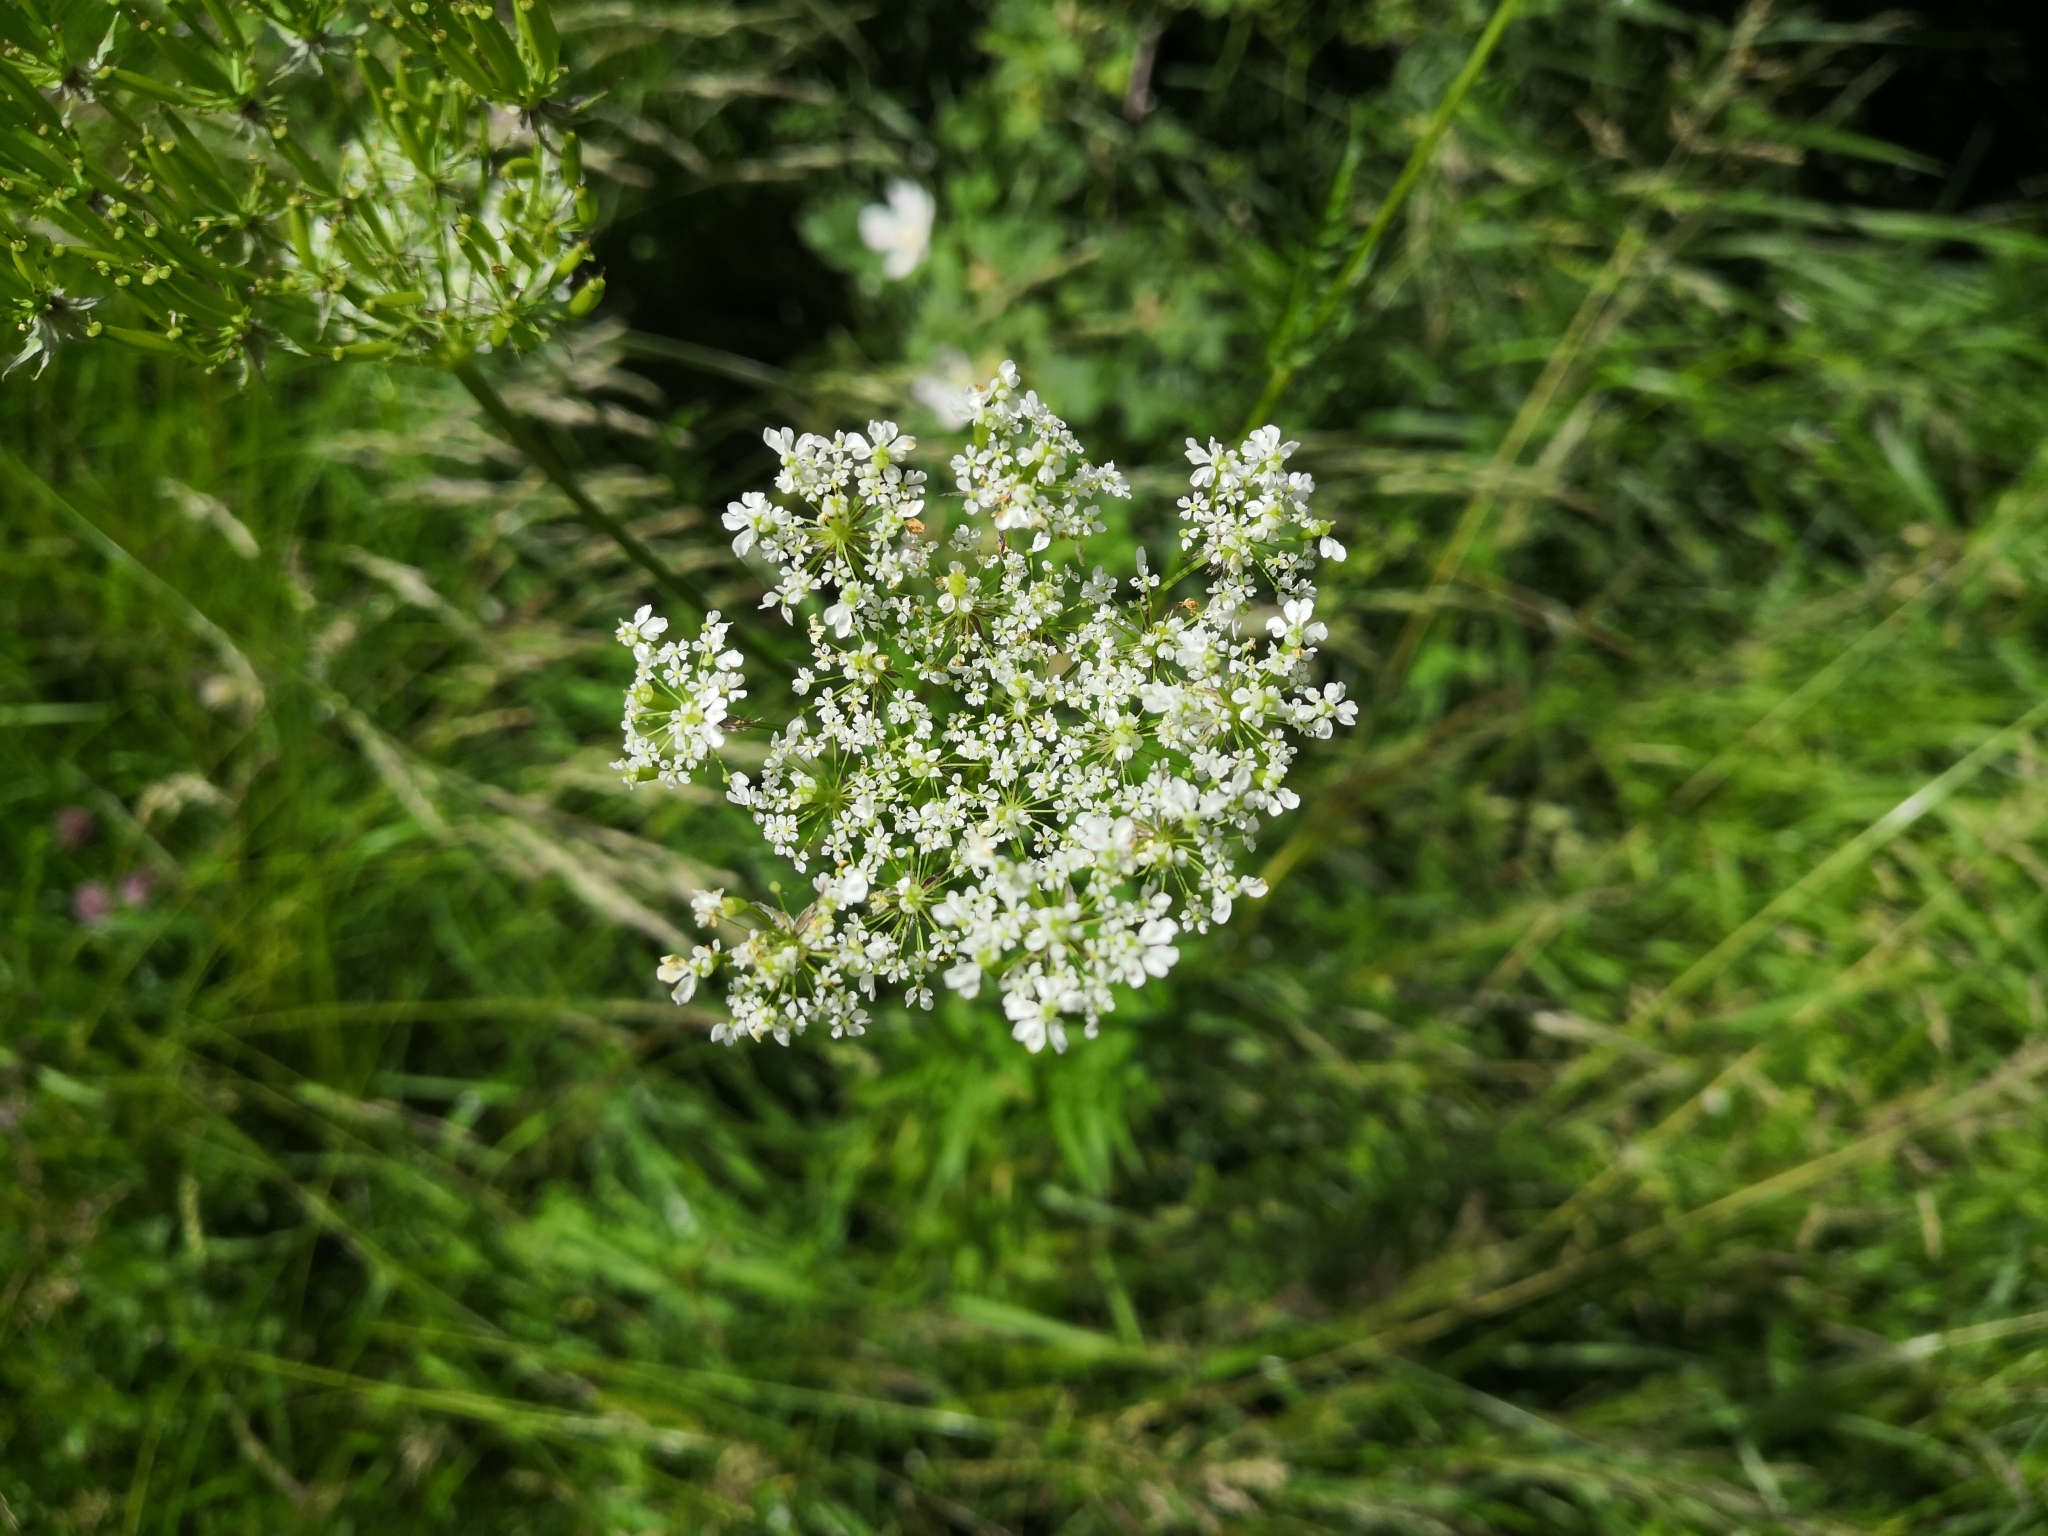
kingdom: Plantae
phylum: Tracheophyta
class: Magnoliopsida
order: Apiales
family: Apiaceae
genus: Anthriscus
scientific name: Anthriscus sylvestris
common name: Cow parsley
